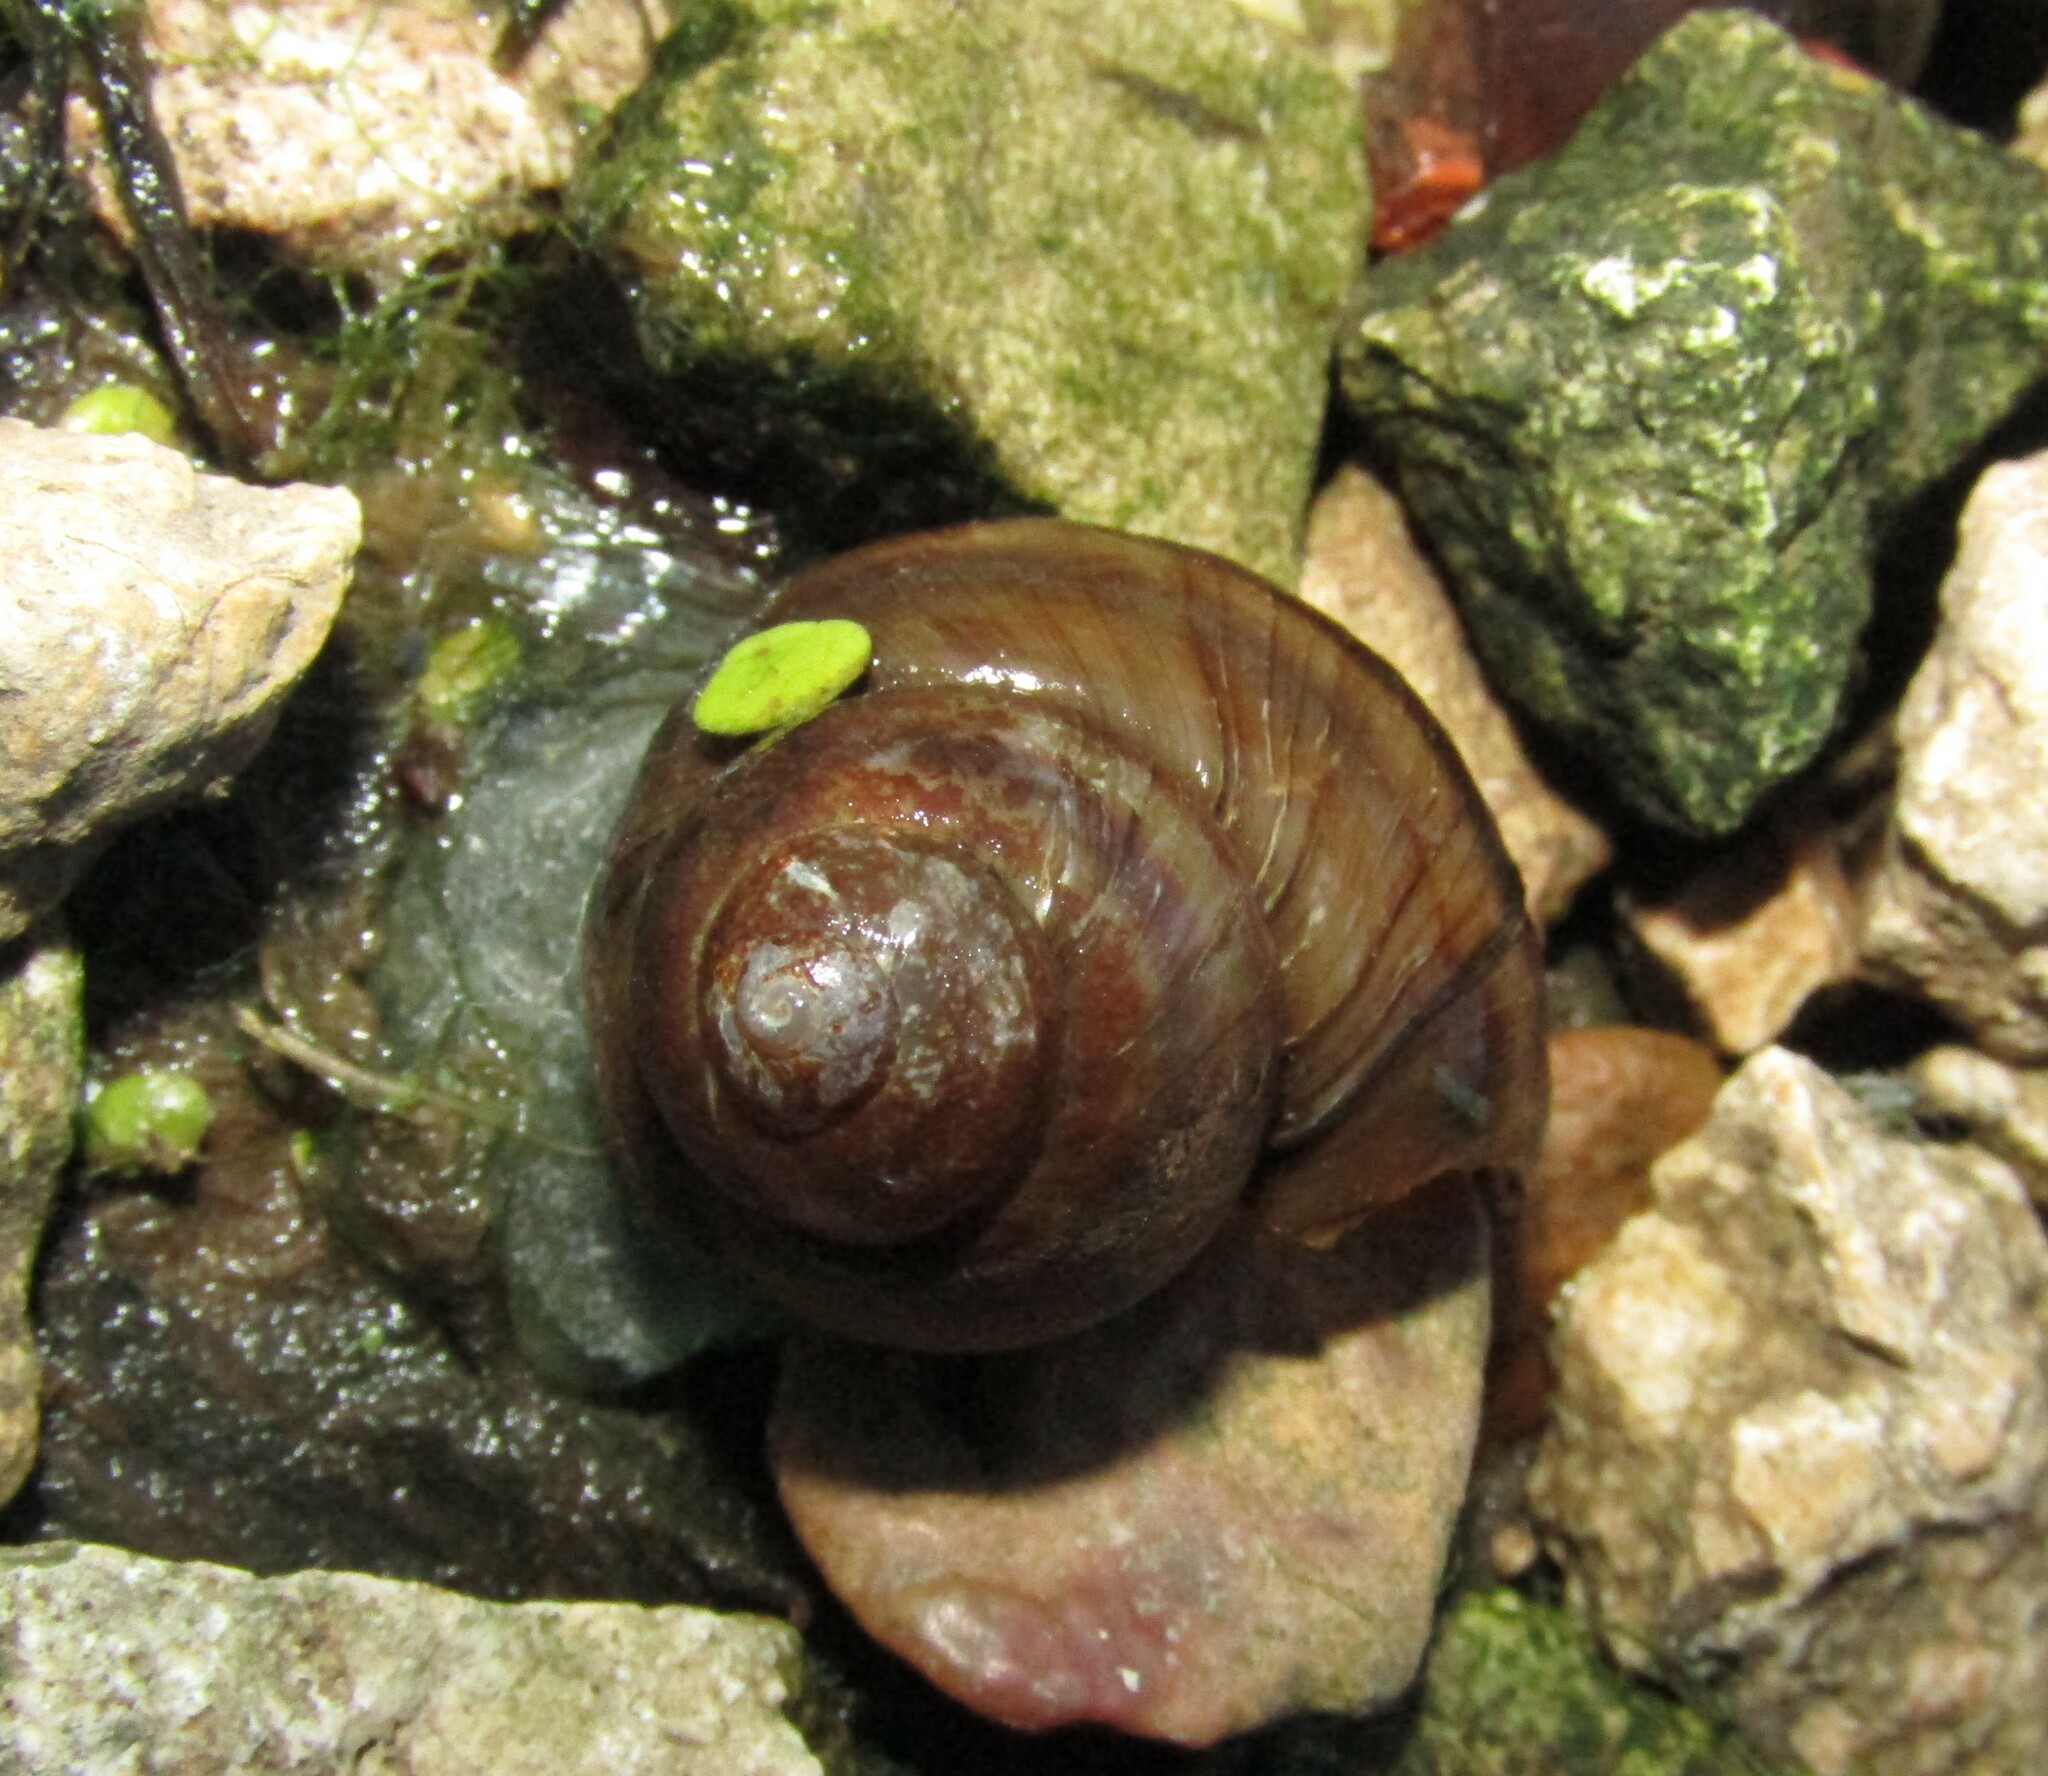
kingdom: Animalia
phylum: Mollusca
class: Gastropoda
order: Architaenioglossa
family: Viviparidae
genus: Viviparus
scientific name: Viviparus viviparus
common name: River snail
